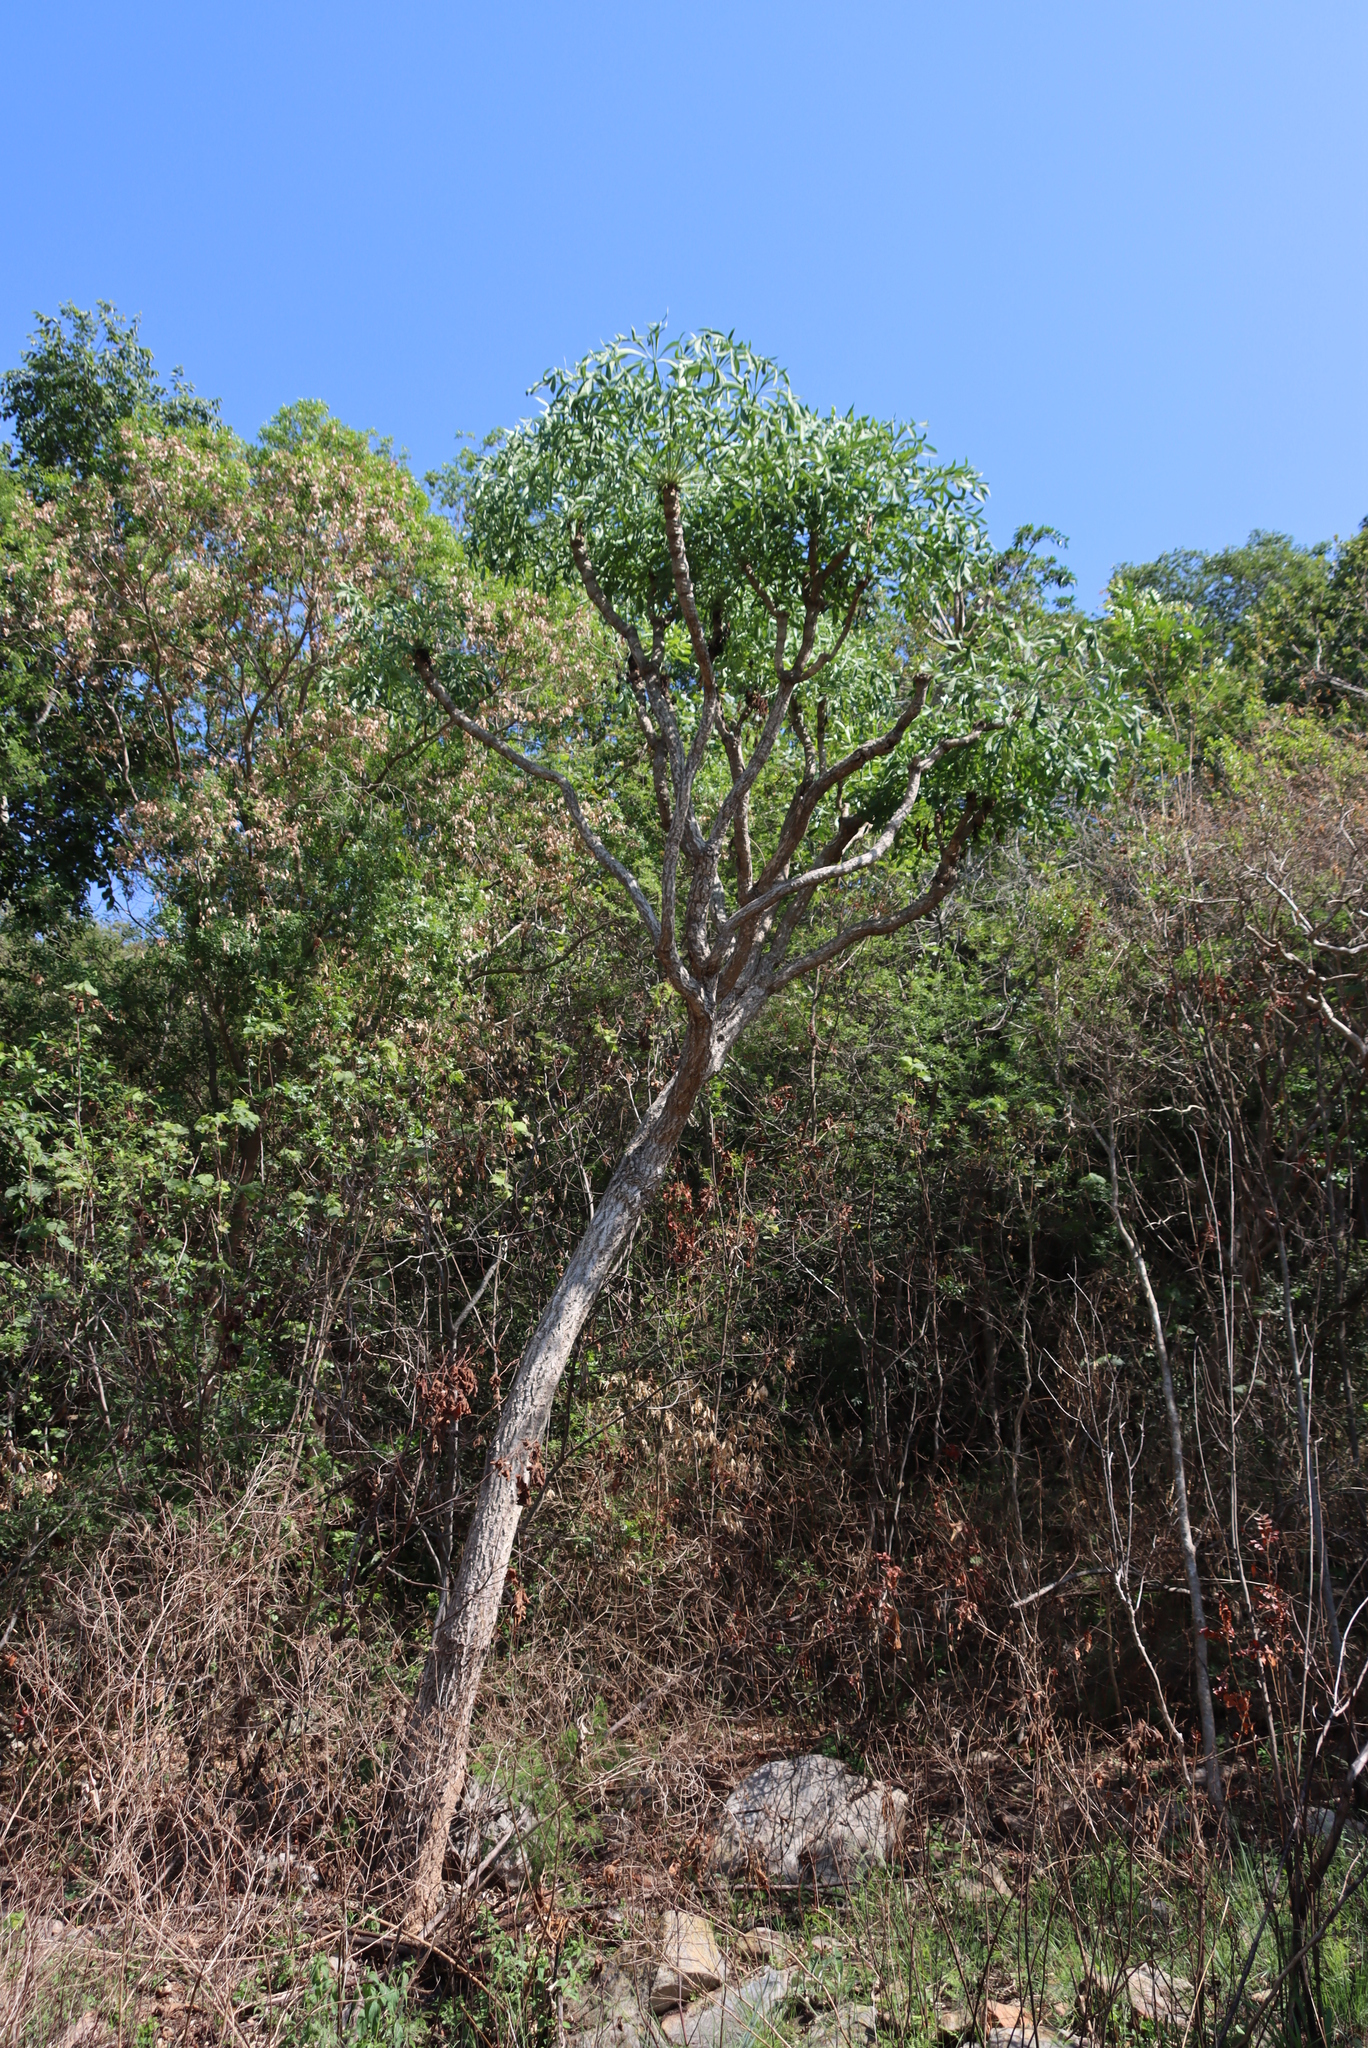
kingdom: Plantae
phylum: Tracheophyta
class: Magnoliopsida
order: Apiales
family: Araliaceae
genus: Cussonia
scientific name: Cussonia spicata
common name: Common cabbagetree
